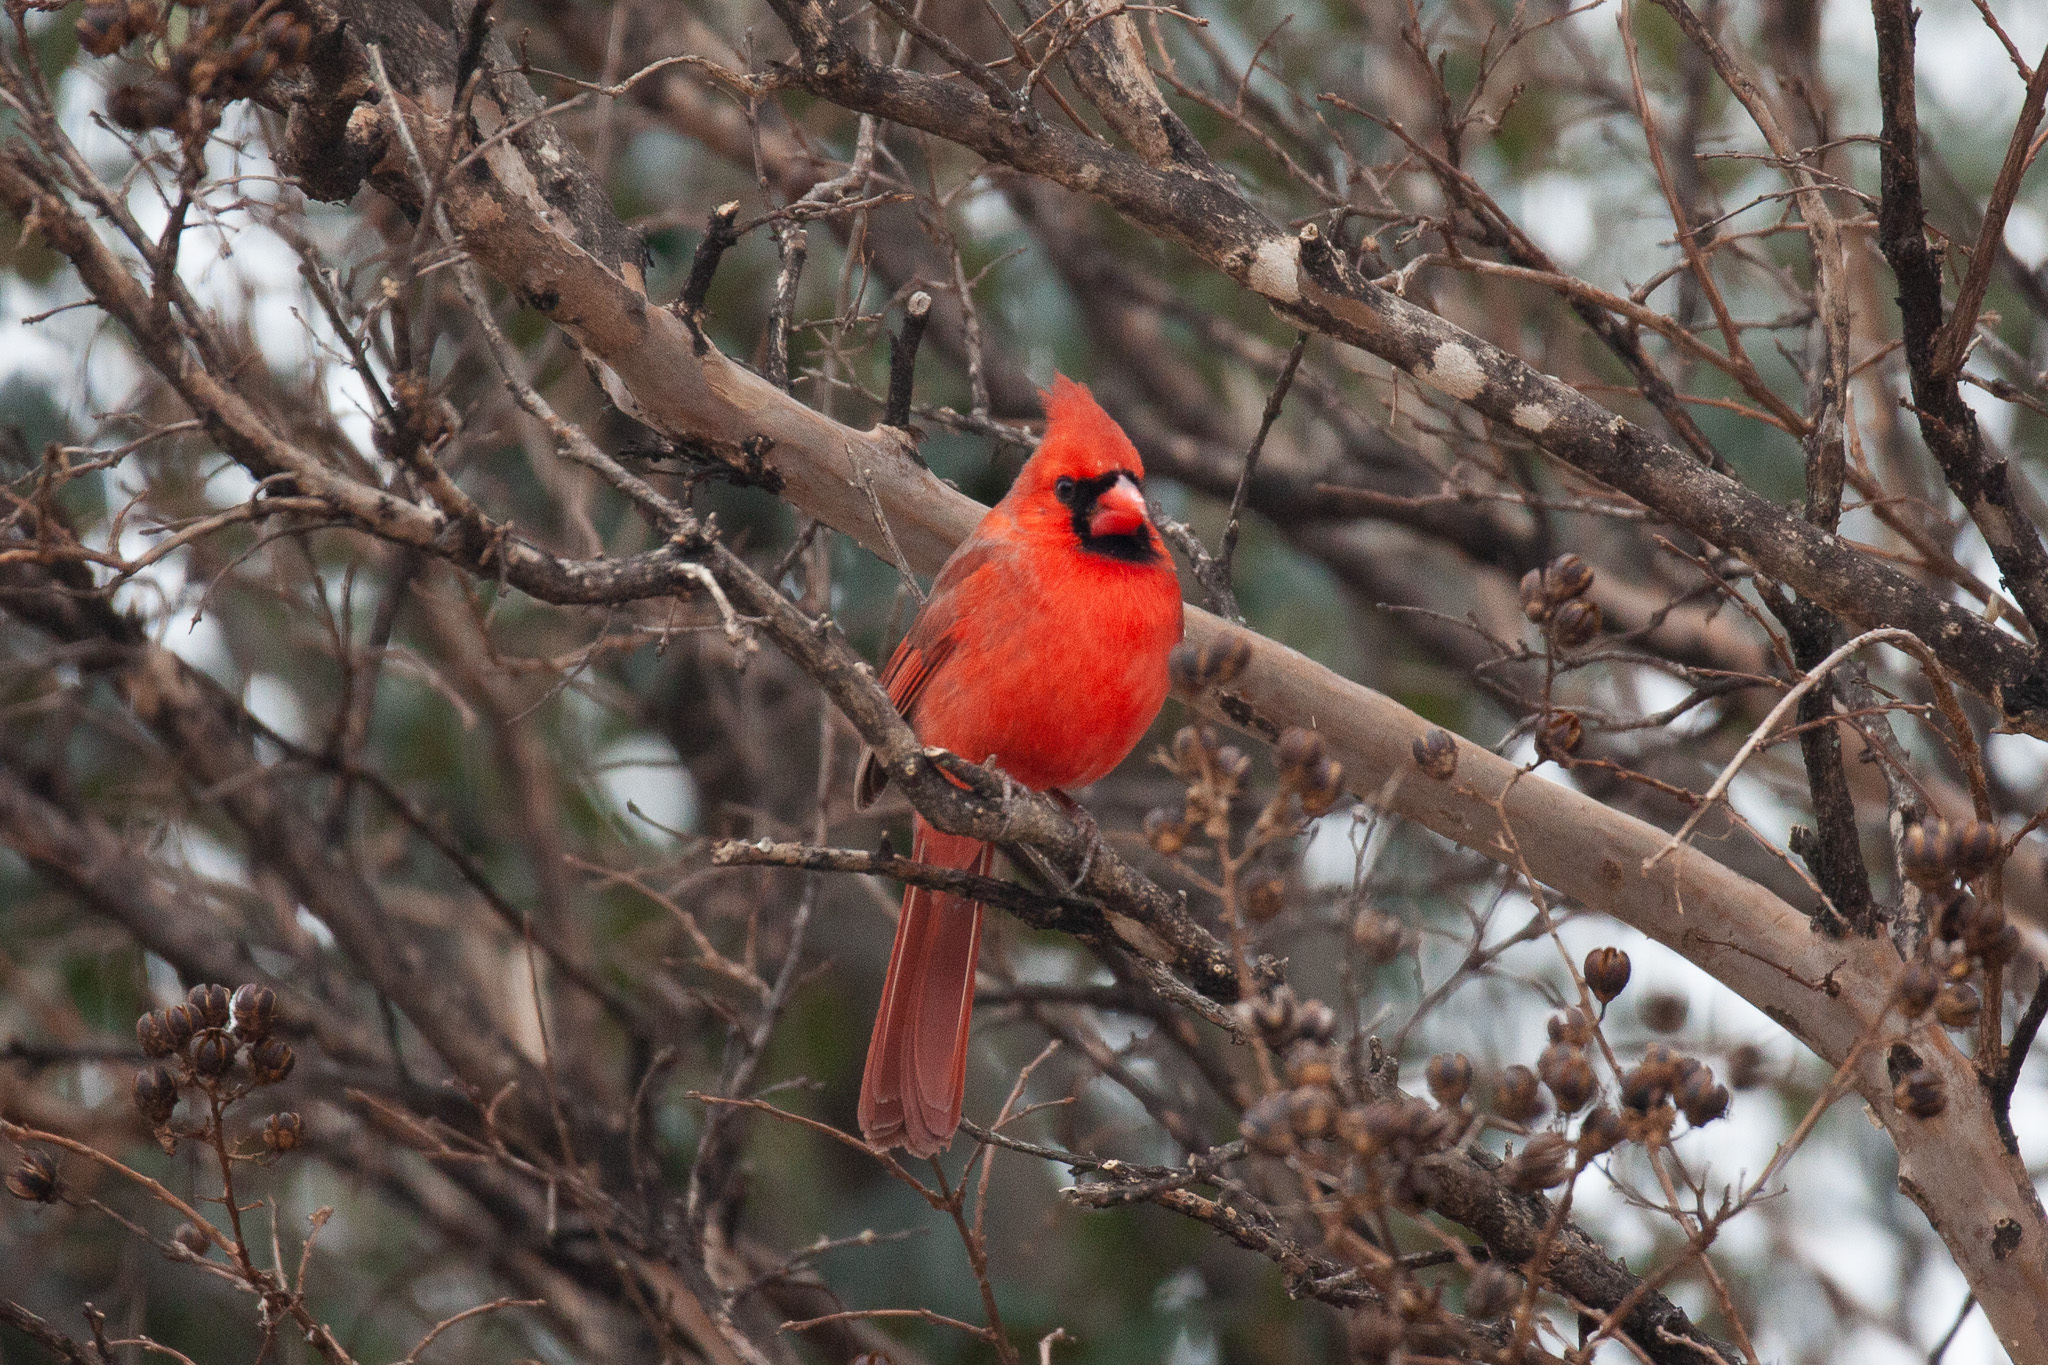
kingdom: Animalia
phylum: Chordata
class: Aves
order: Passeriformes
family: Cardinalidae
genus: Cardinalis
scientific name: Cardinalis cardinalis
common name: Northern cardinal
